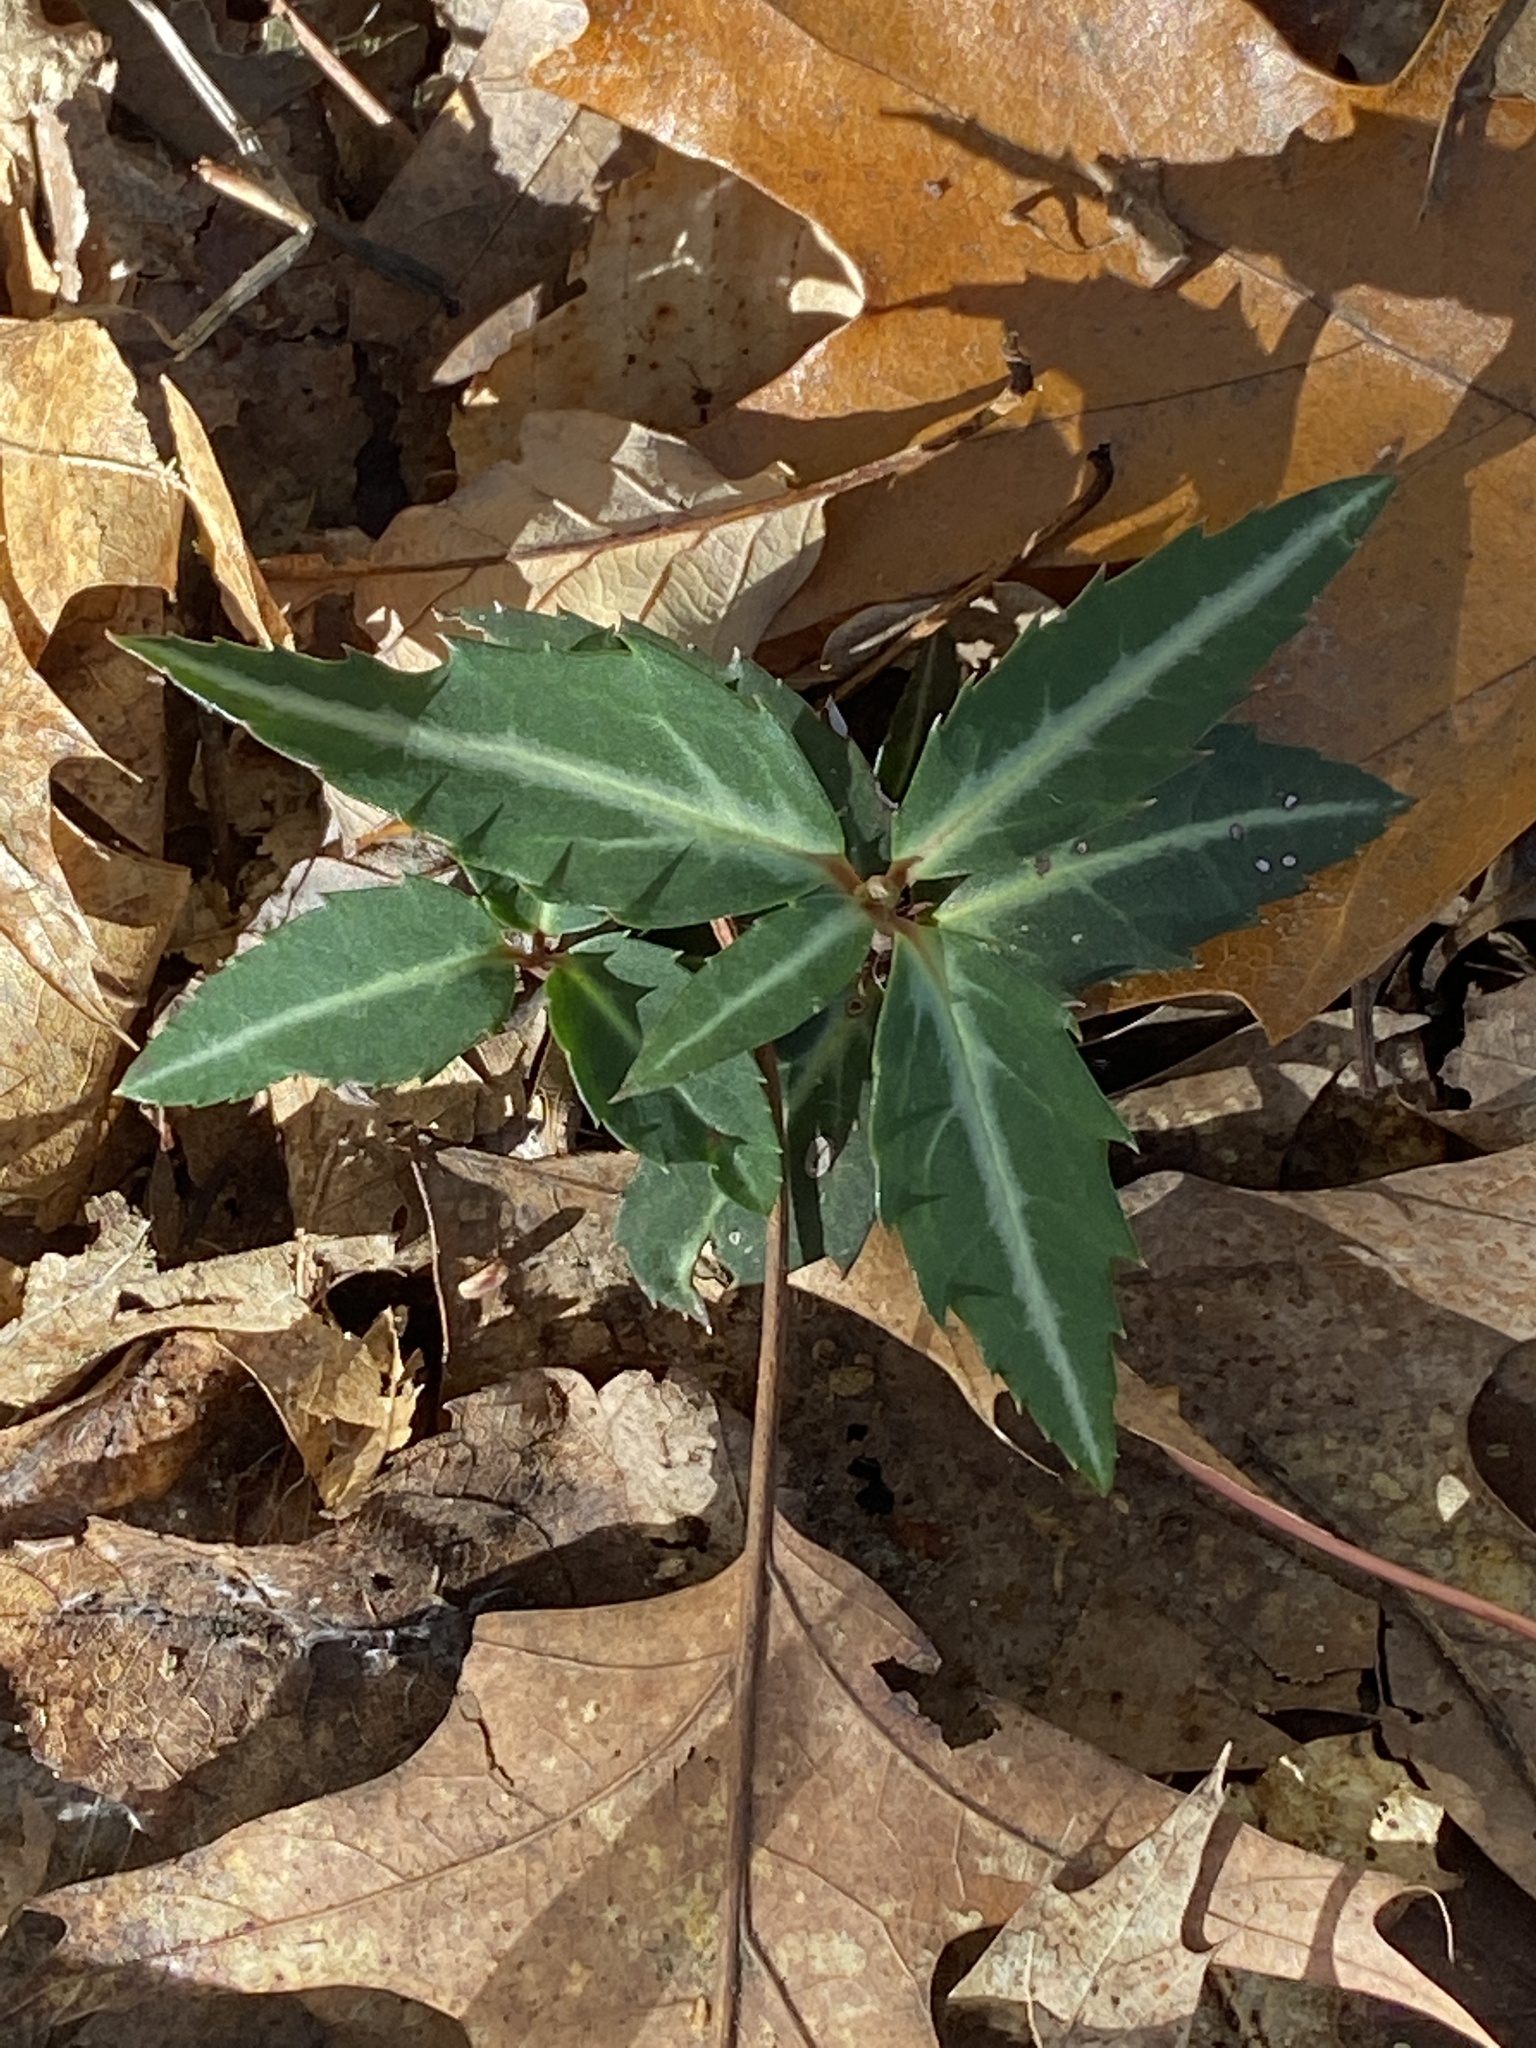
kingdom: Plantae
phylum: Tracheophyta
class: Magnoliopsida
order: Ericales
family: Ericaceae
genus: Chimaphila
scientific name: Chimaphila maculata
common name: Spotted pipsissewa
